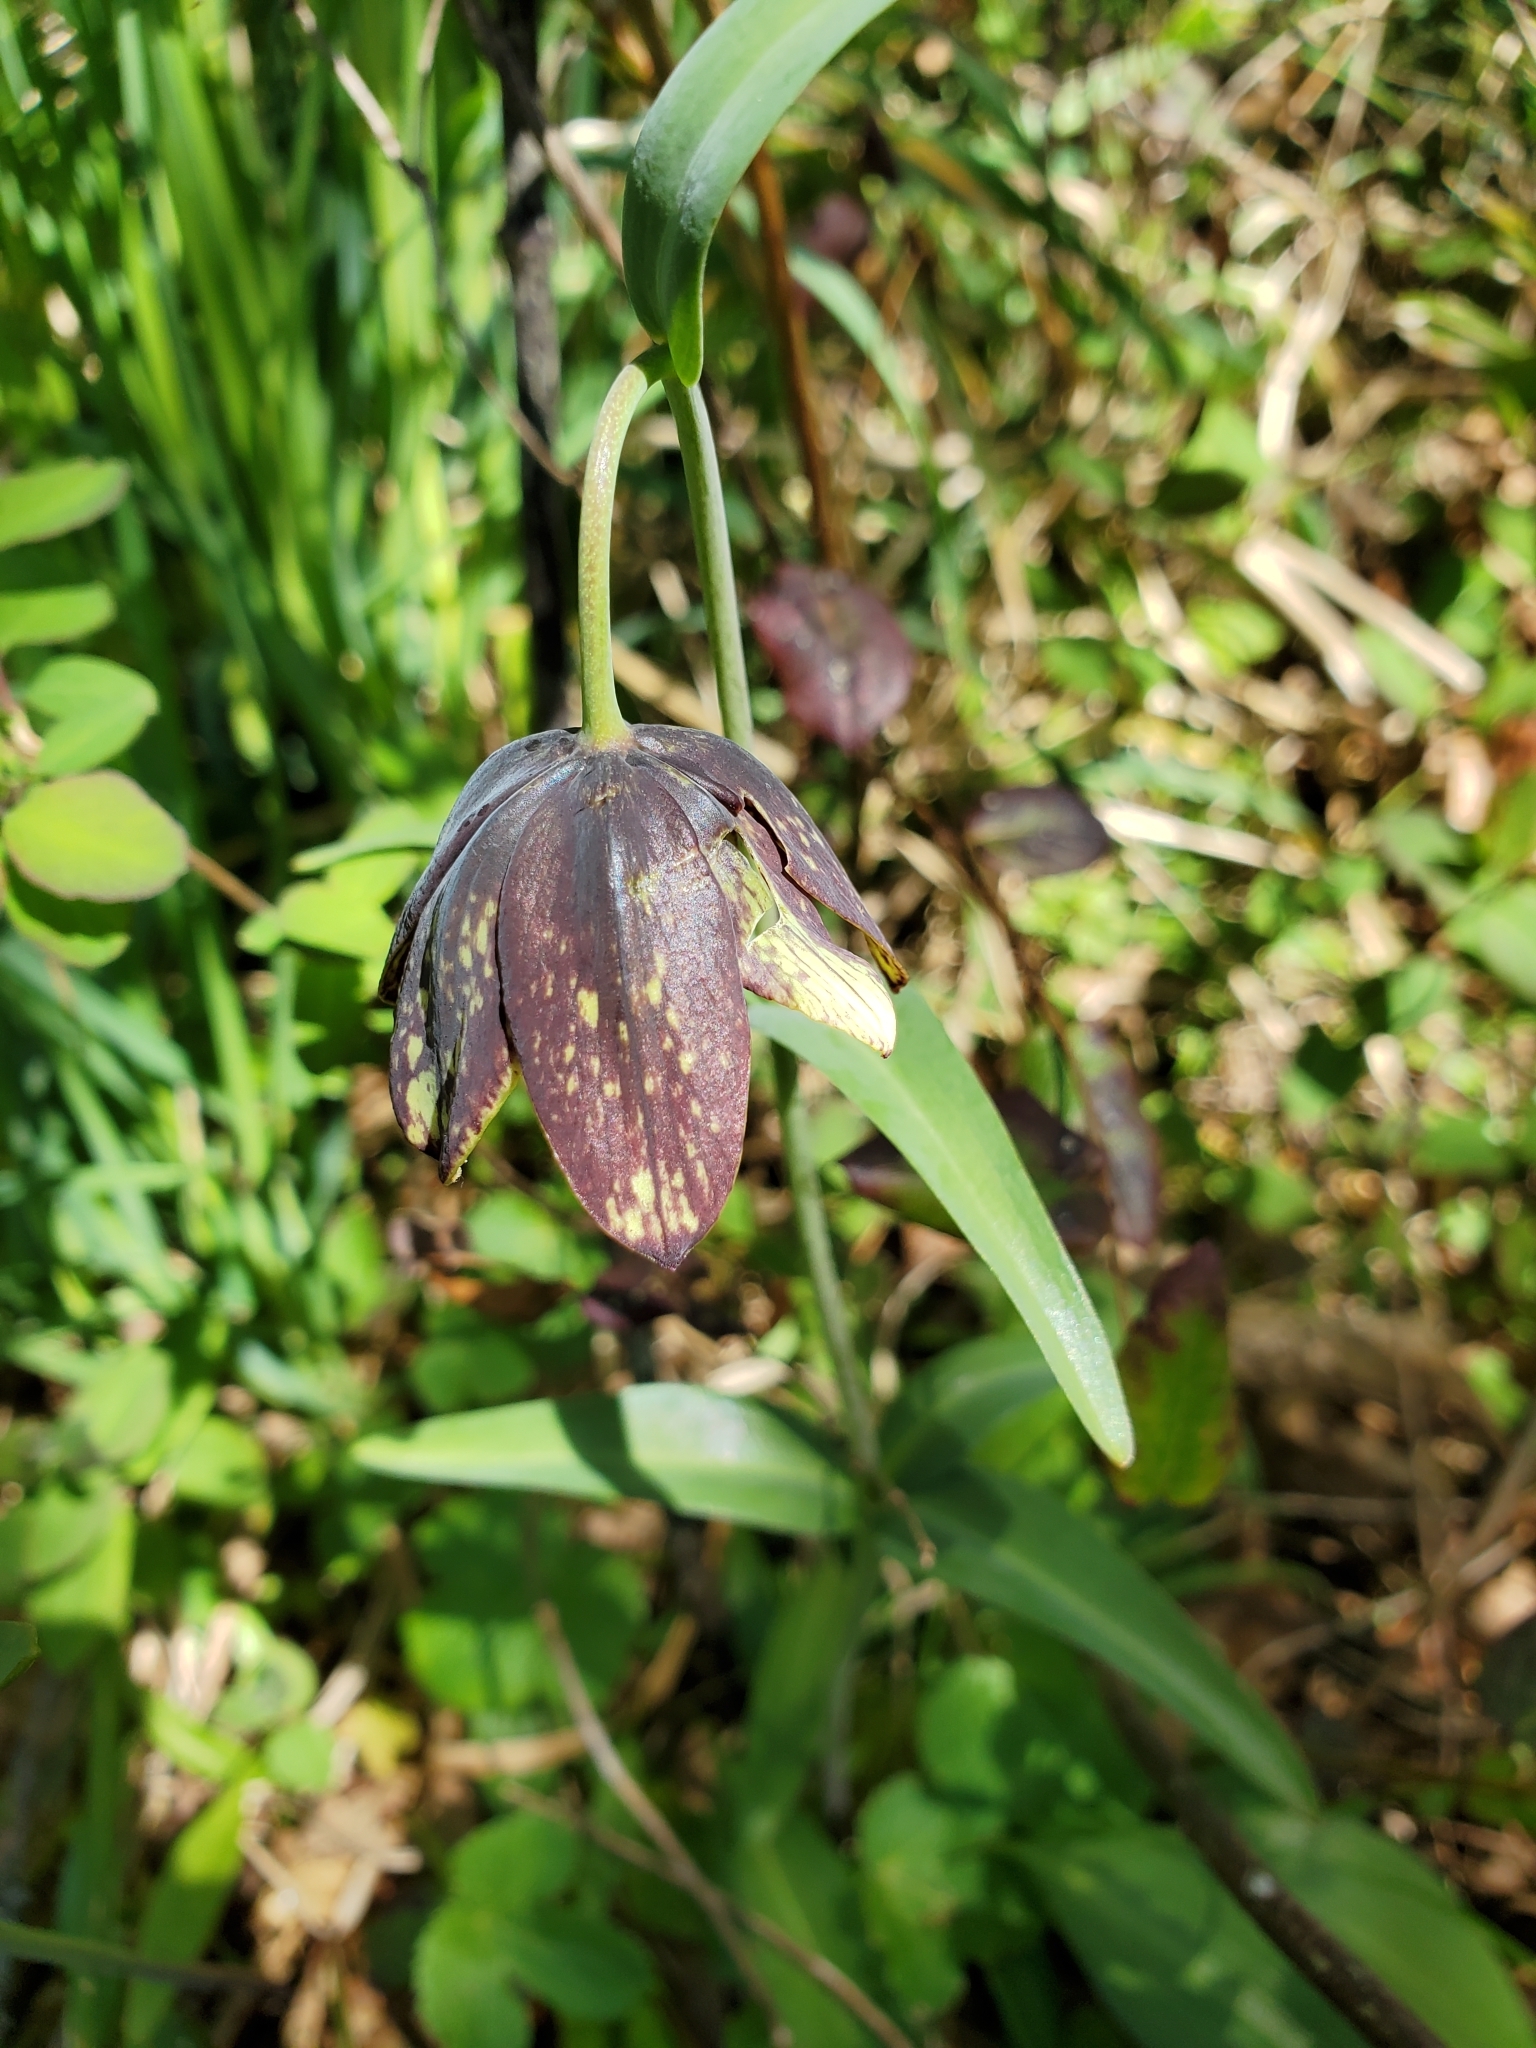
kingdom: Plantae
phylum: Tracheophyta
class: Liliopsida
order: Liliales
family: Liliaceae
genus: Fritillaria
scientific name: Fritillaria affinis
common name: Ojai fritillary
